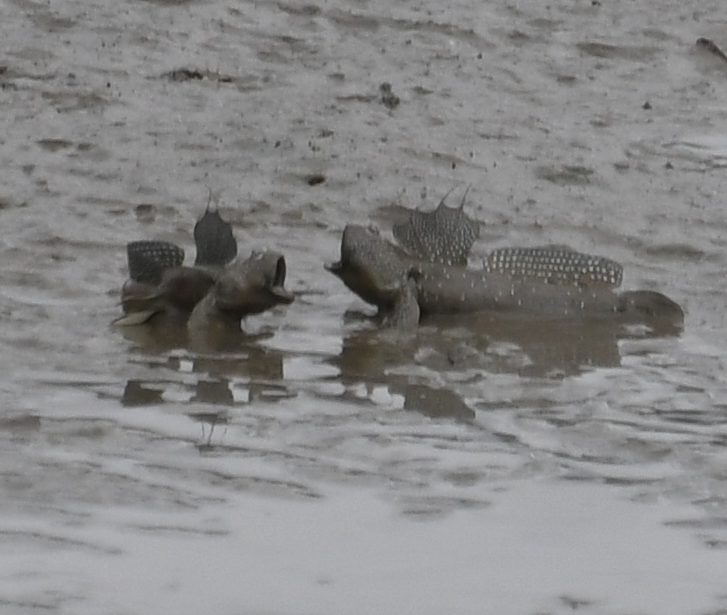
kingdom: Animalia
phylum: Chordata
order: Perciformes
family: Gobiidae
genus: Boleophthalmus
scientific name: Boleophthalmus pectinirostris
